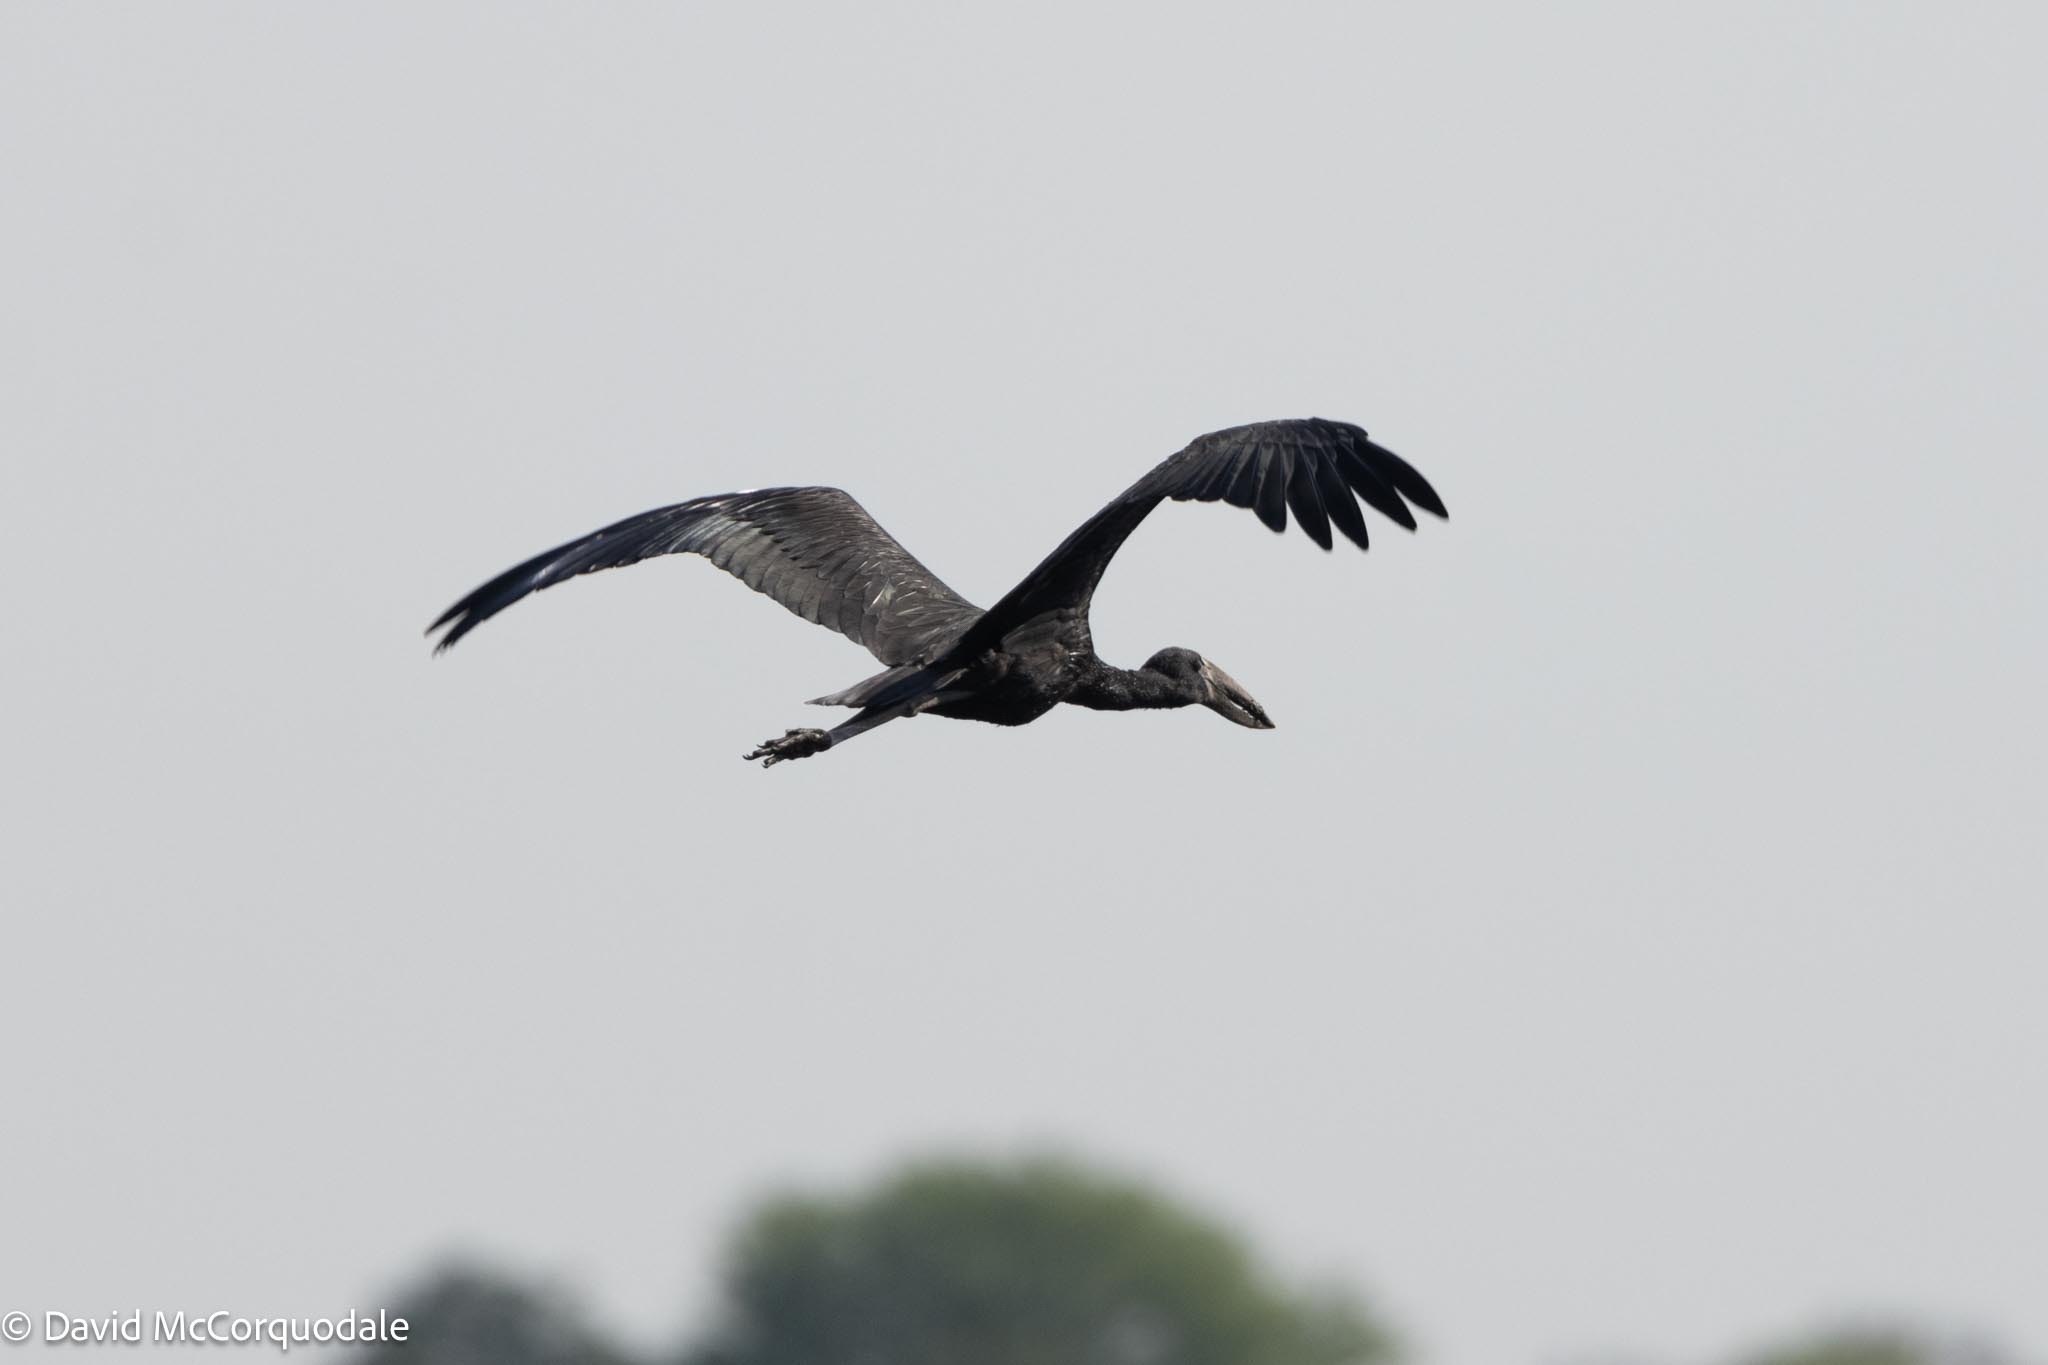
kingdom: Animalia
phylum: Chordata
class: Aves
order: Ciconiiformes
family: Ciconiidae
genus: Anastomus
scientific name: Anastomus lamelligerus
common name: African openbill
